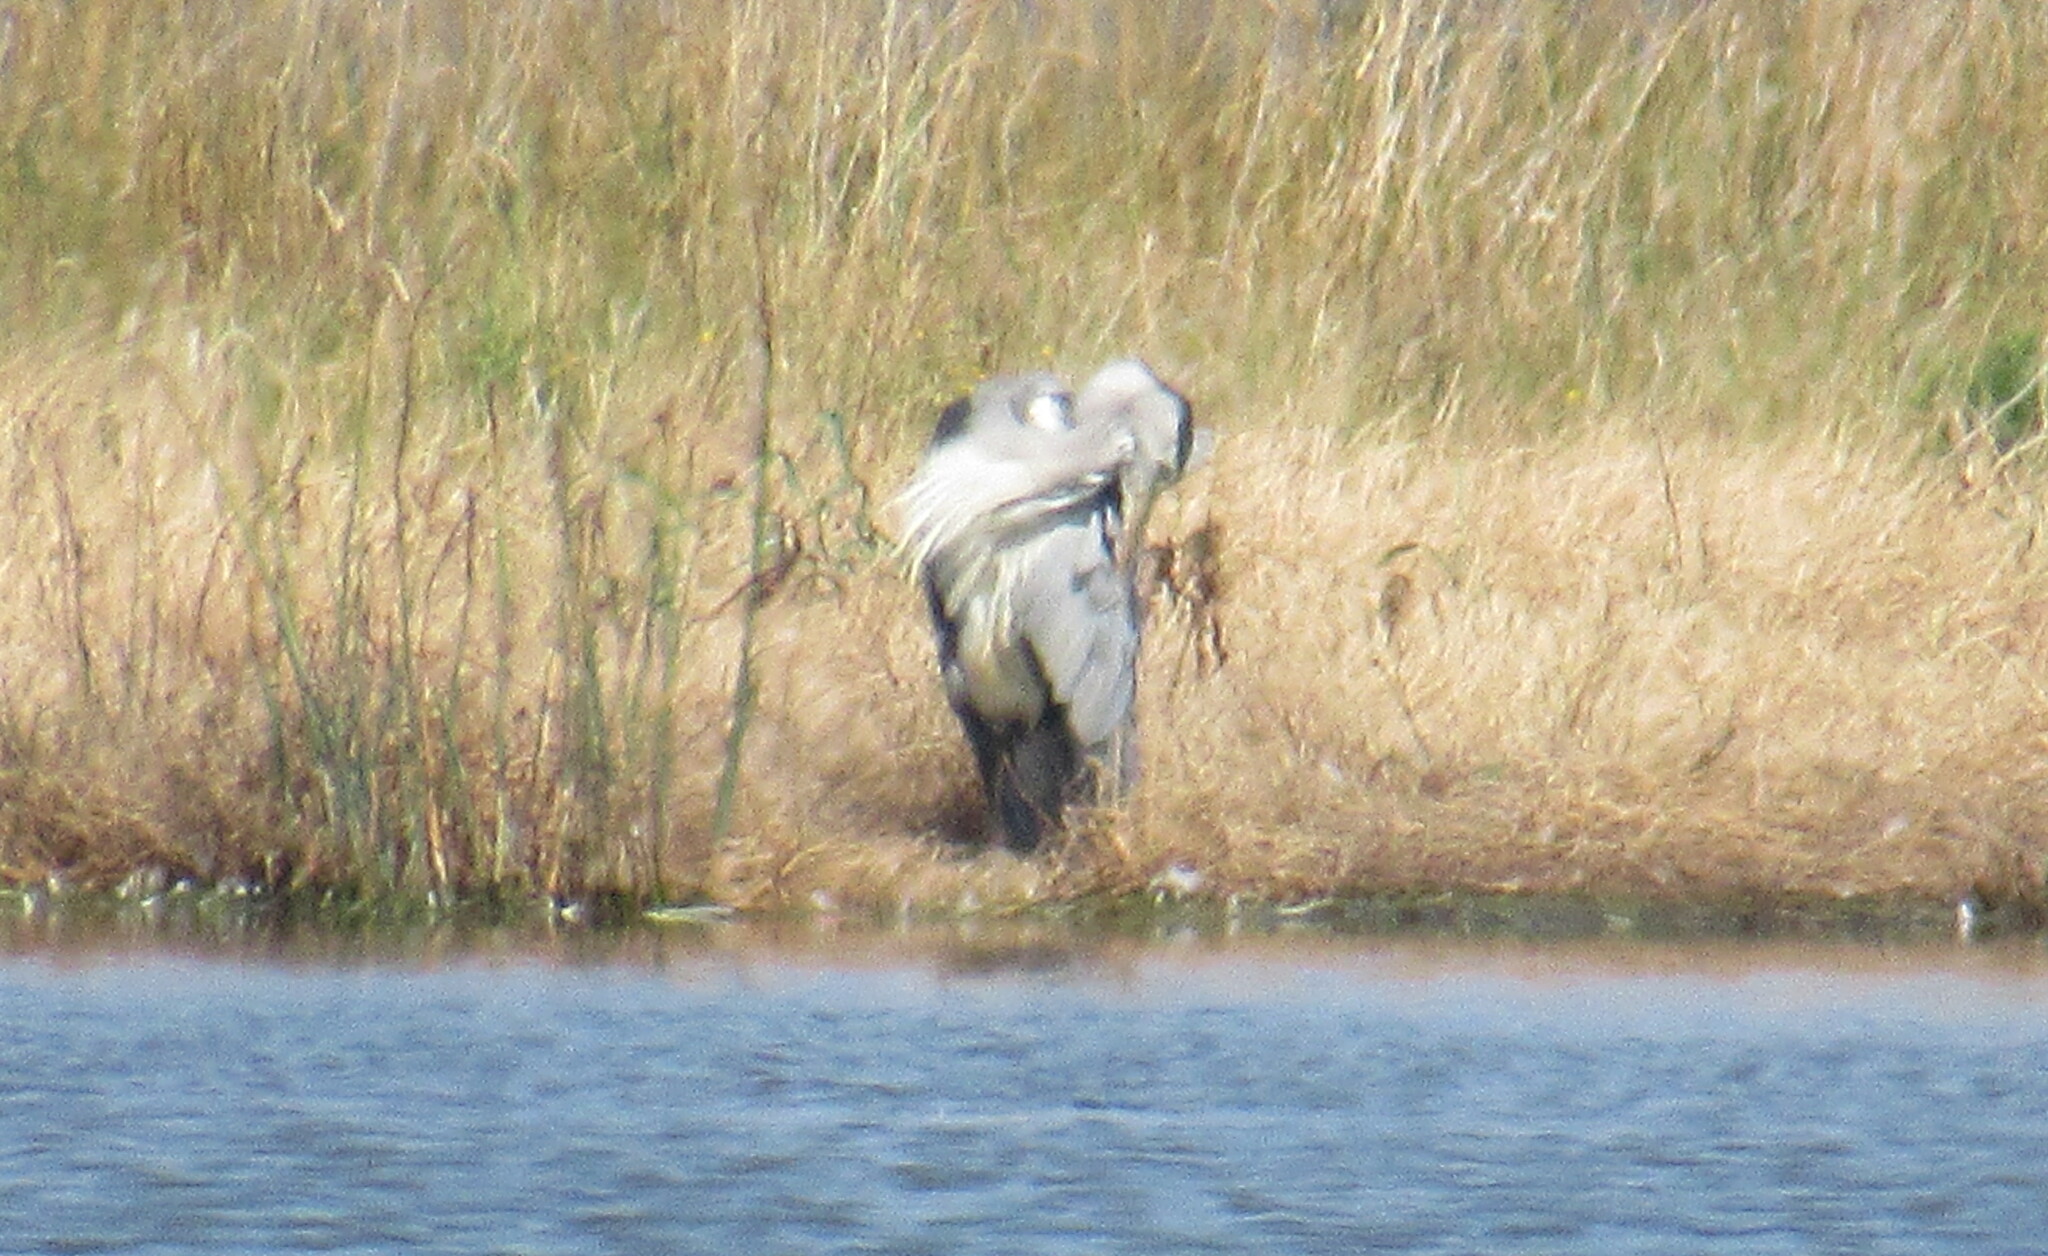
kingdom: Animalia
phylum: Chordata
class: Aves
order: Pelecaniformes
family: Ardeidae
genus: Ardea
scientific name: Ardea cinerea
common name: Grey heron
